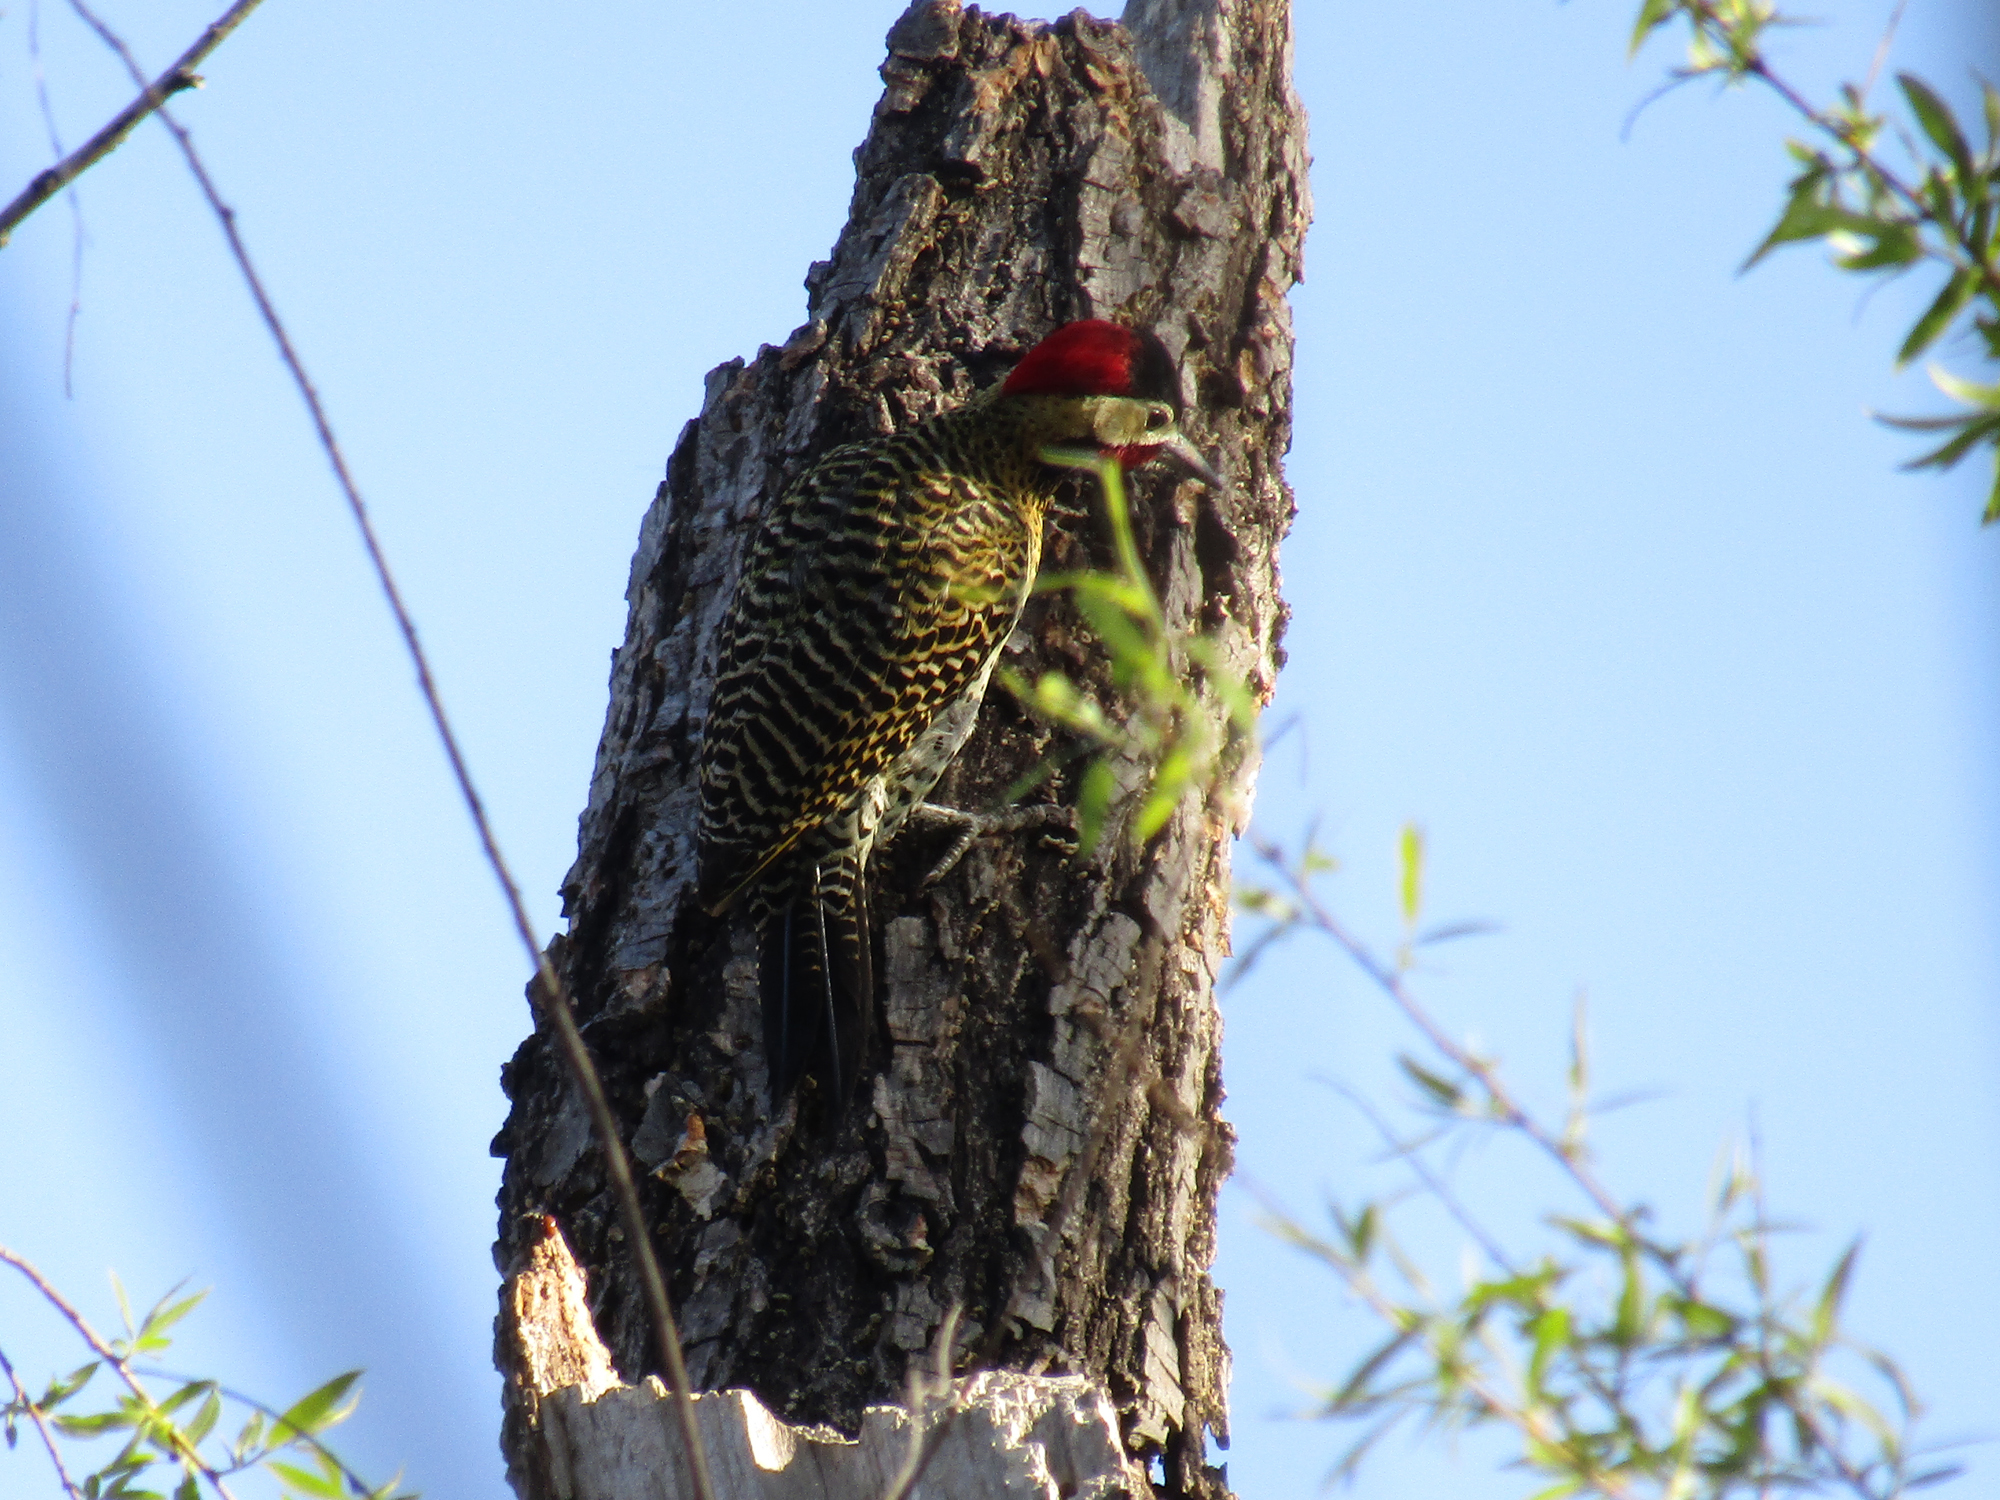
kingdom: Animalia
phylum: Chordata
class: Aves
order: Piciformes
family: Picidae
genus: Colaptes
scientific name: Colaptes melanochloros
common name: Green-barred woodpecker
